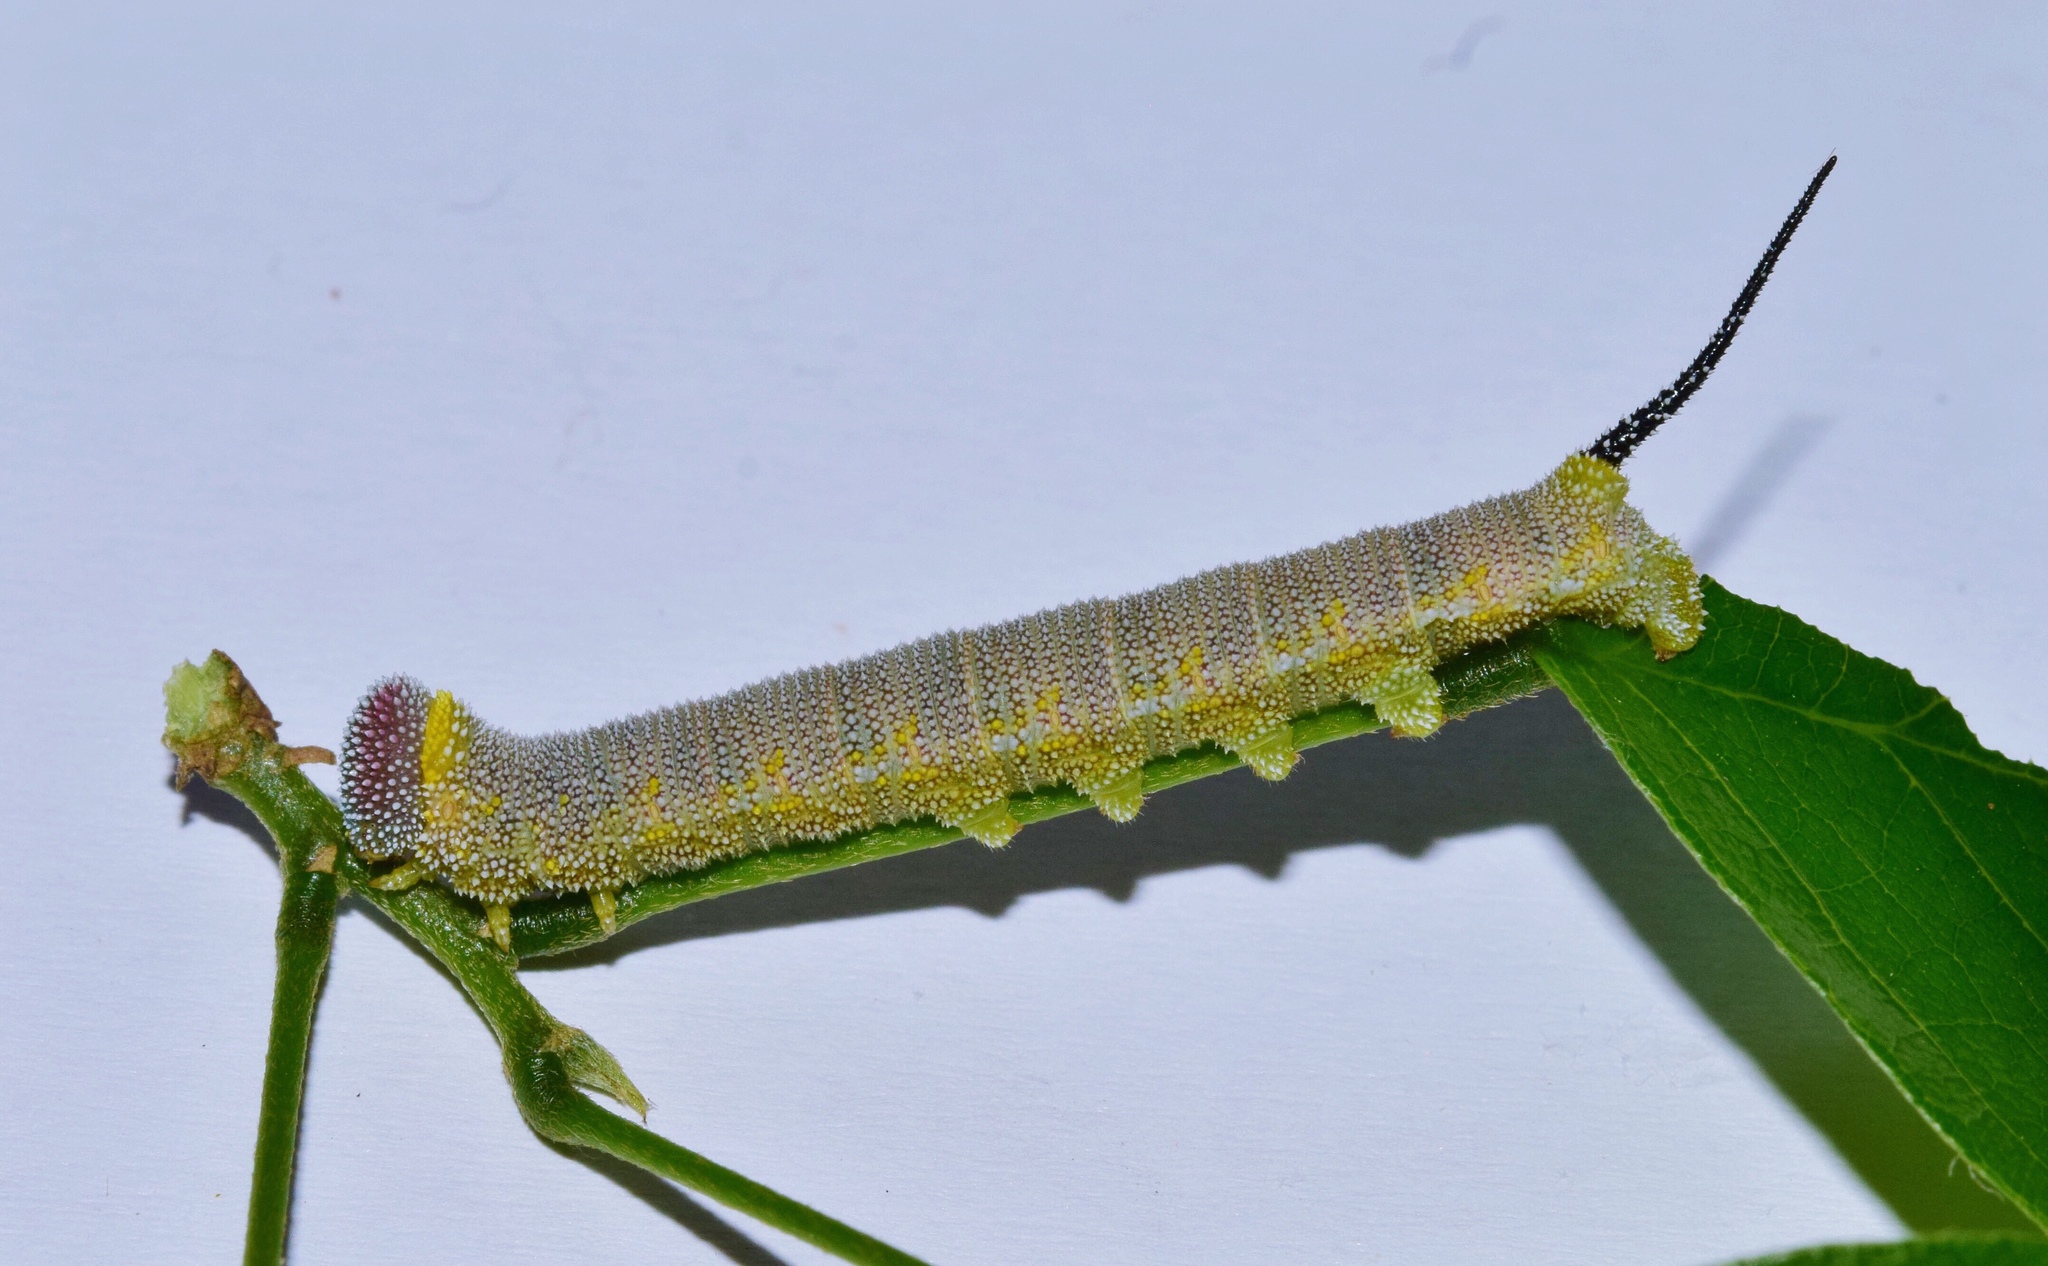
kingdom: Animalia
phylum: Arthropoda
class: Insecta
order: Lepidoptera
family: Sphingidae
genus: Pseudandriasa
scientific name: Pseudandriasa mutata
